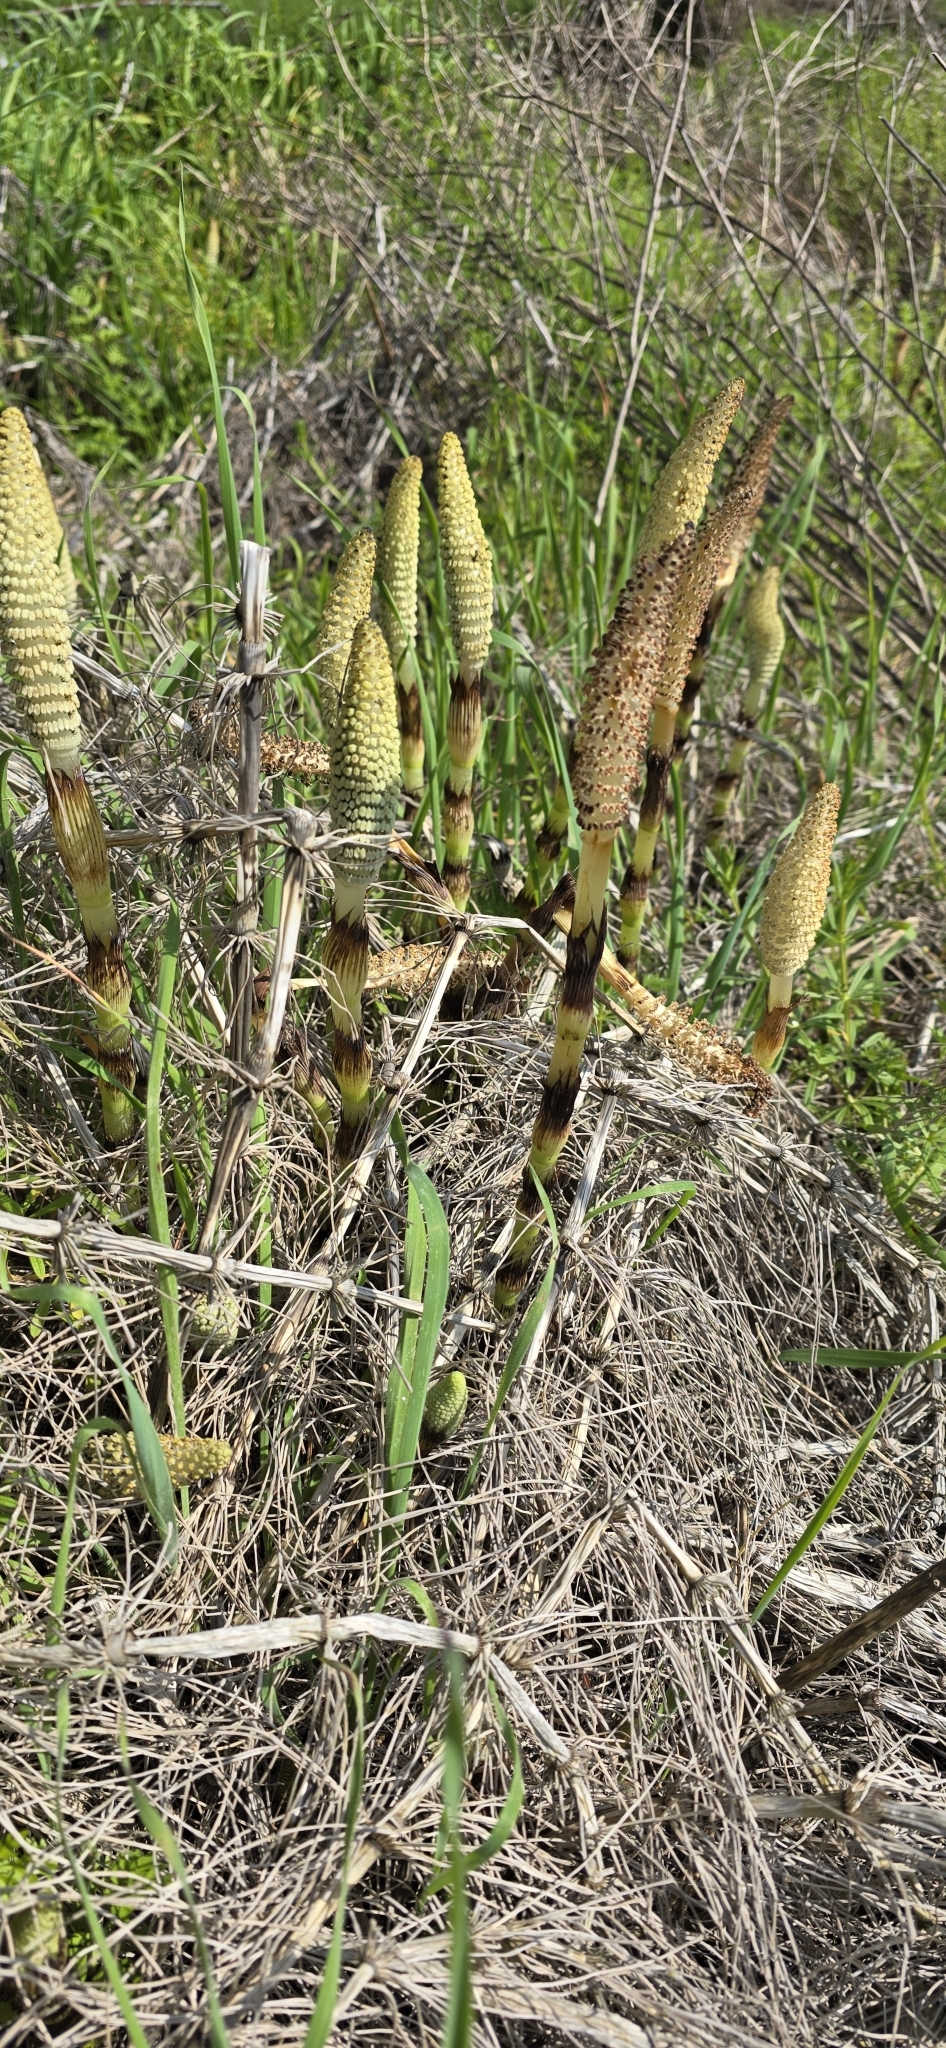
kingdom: Plantae
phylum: Tracheophyta
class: Polypodiopsida
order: Equisetales
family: Equisetaceae
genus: Equisetum
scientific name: Equisetum telmateia
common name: Great horsetail
